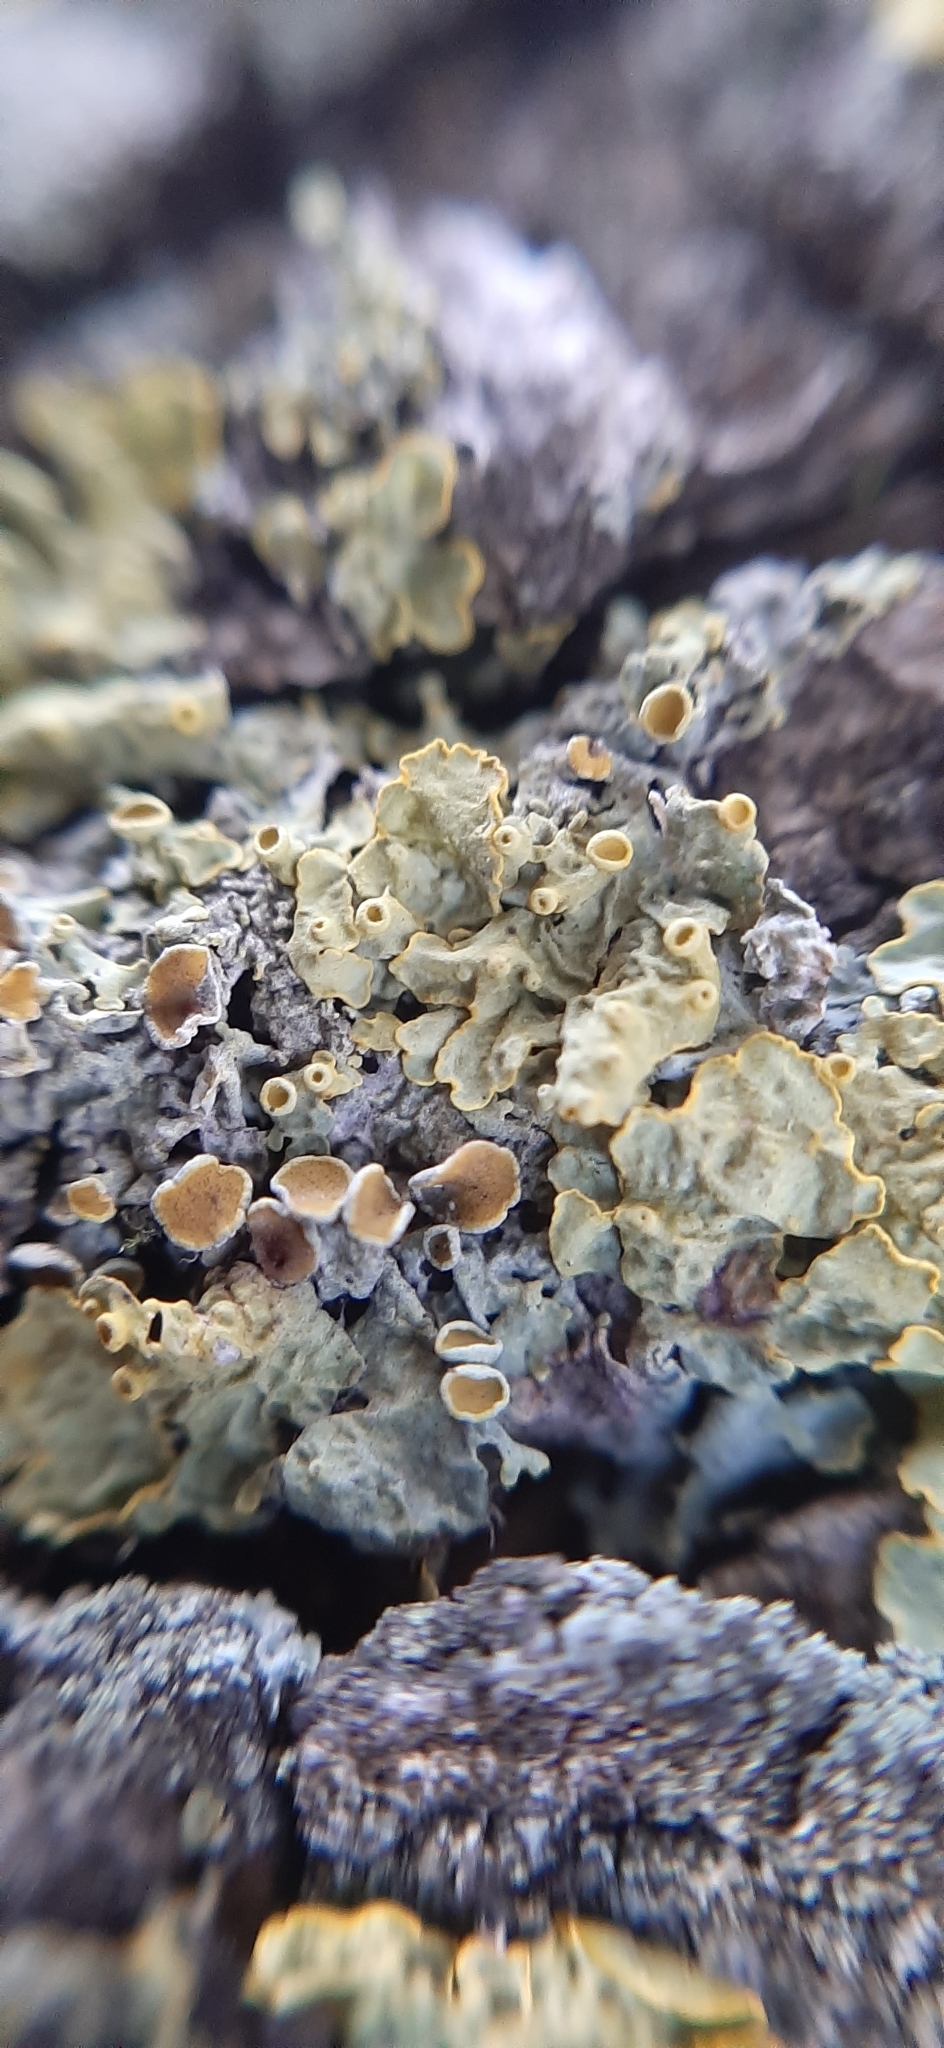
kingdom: Fungi
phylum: Ascomycota
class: Lecanoromycetes
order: Teloschistales
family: Teloschistaceae
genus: Xanthoria
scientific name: Xanthoria parietina
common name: Common orange lichen
